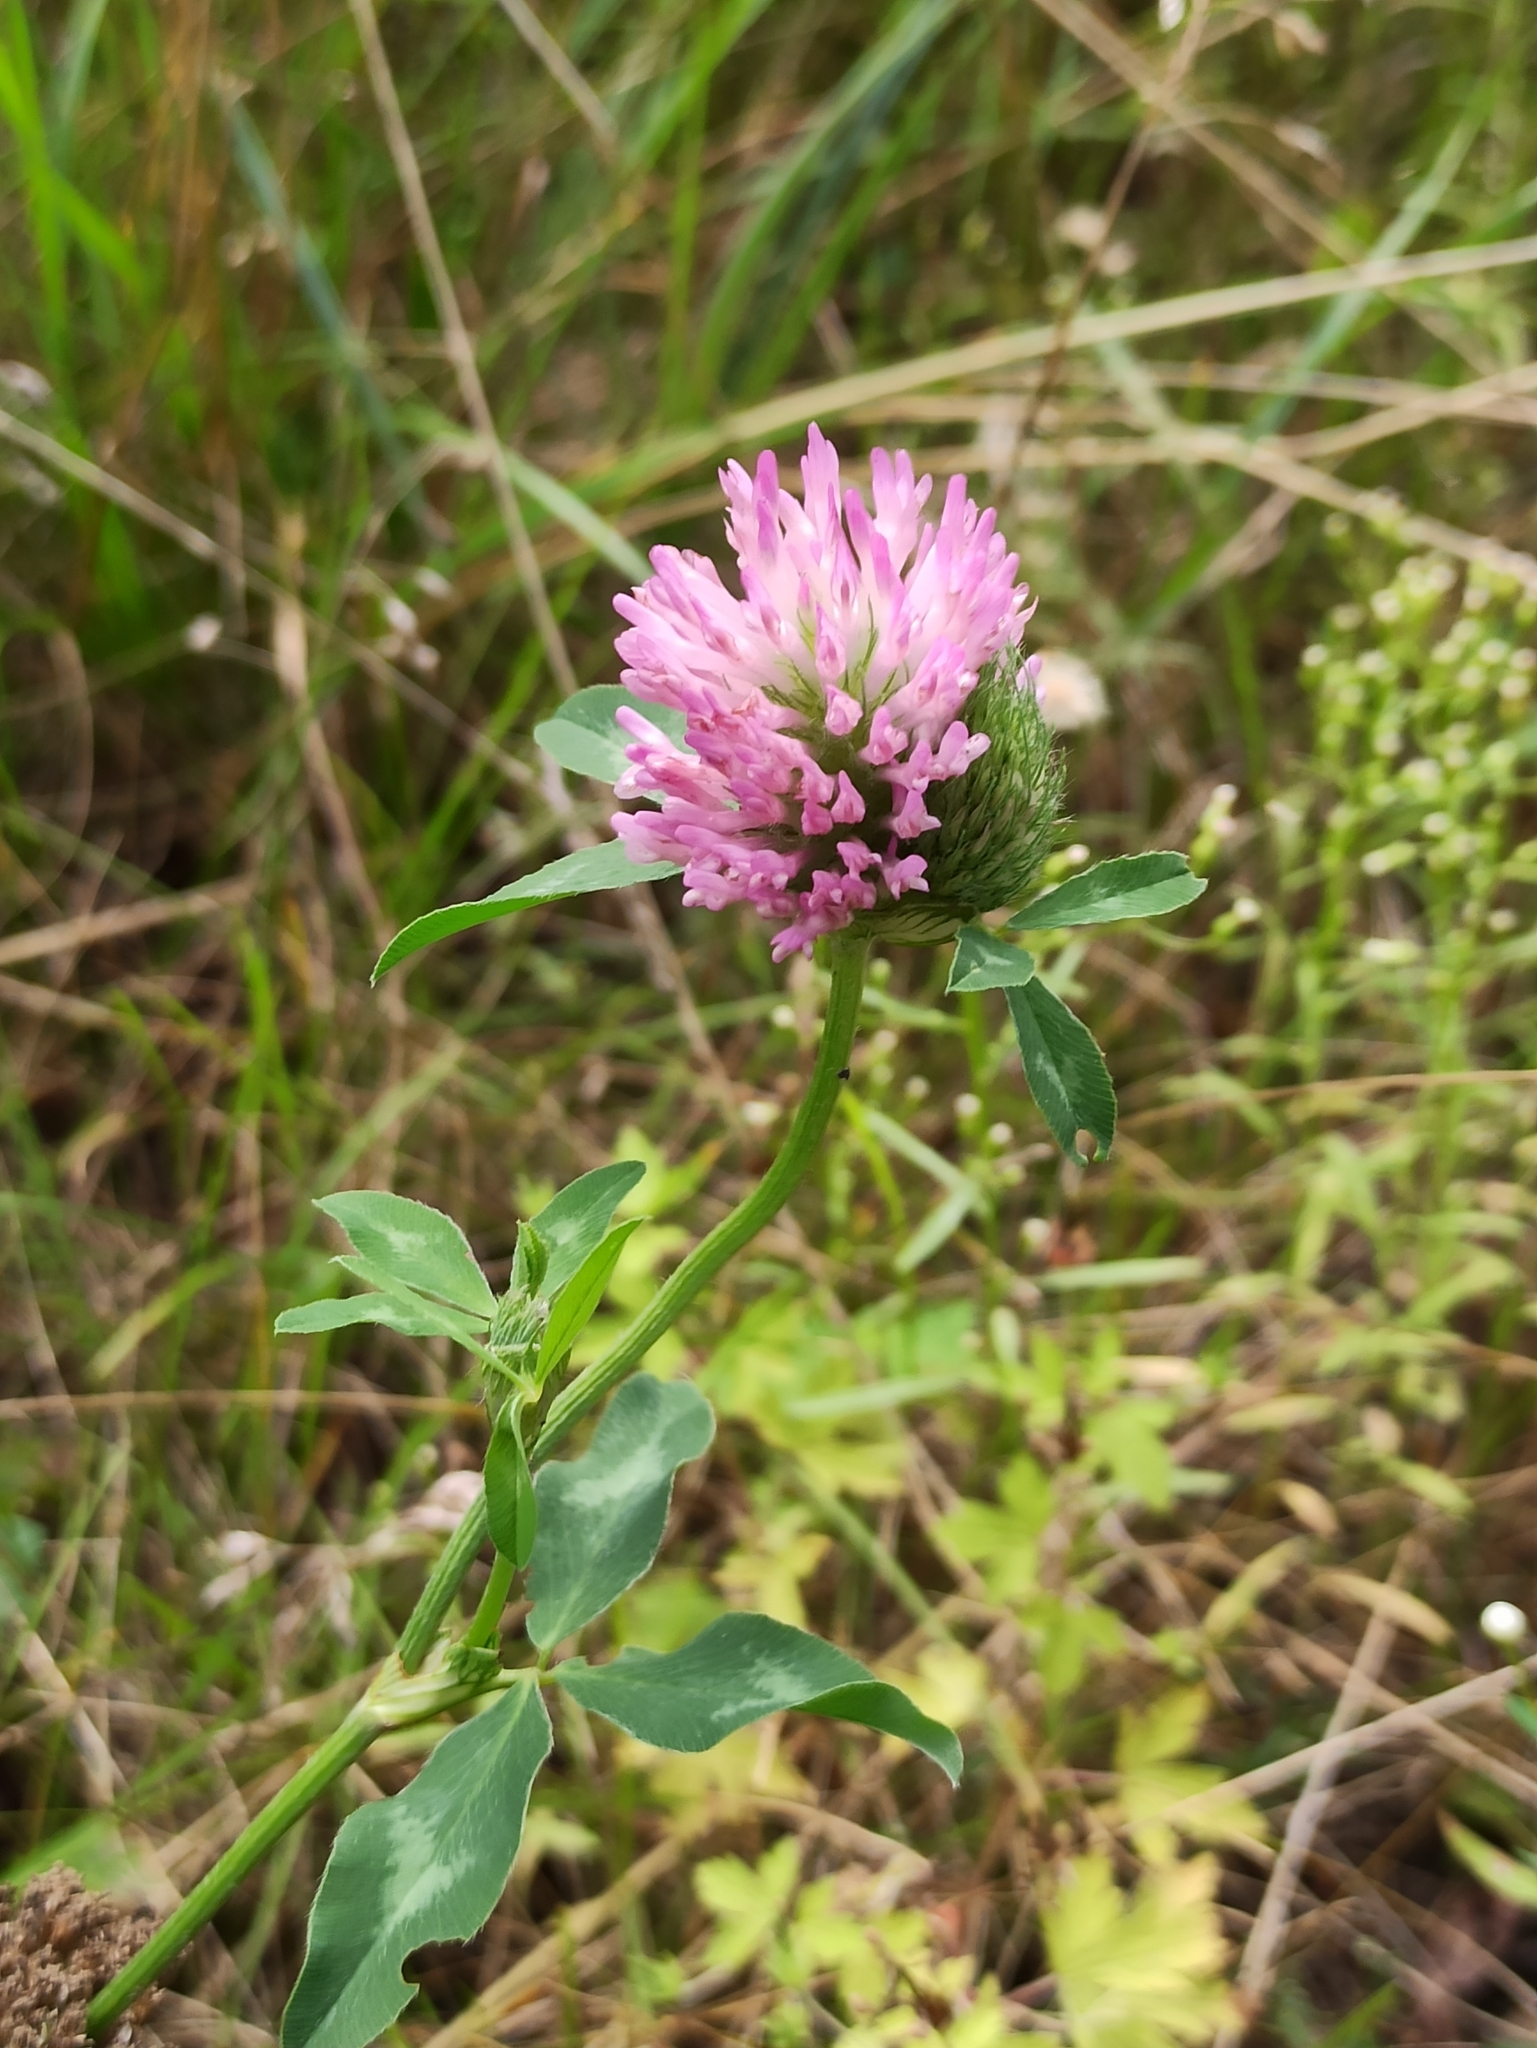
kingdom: Plantae
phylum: Tracheophyta
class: Magnoliopsida
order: Fabales
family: Fabaceae
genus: Trifolium
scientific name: Trifolium pratense
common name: Red clover
